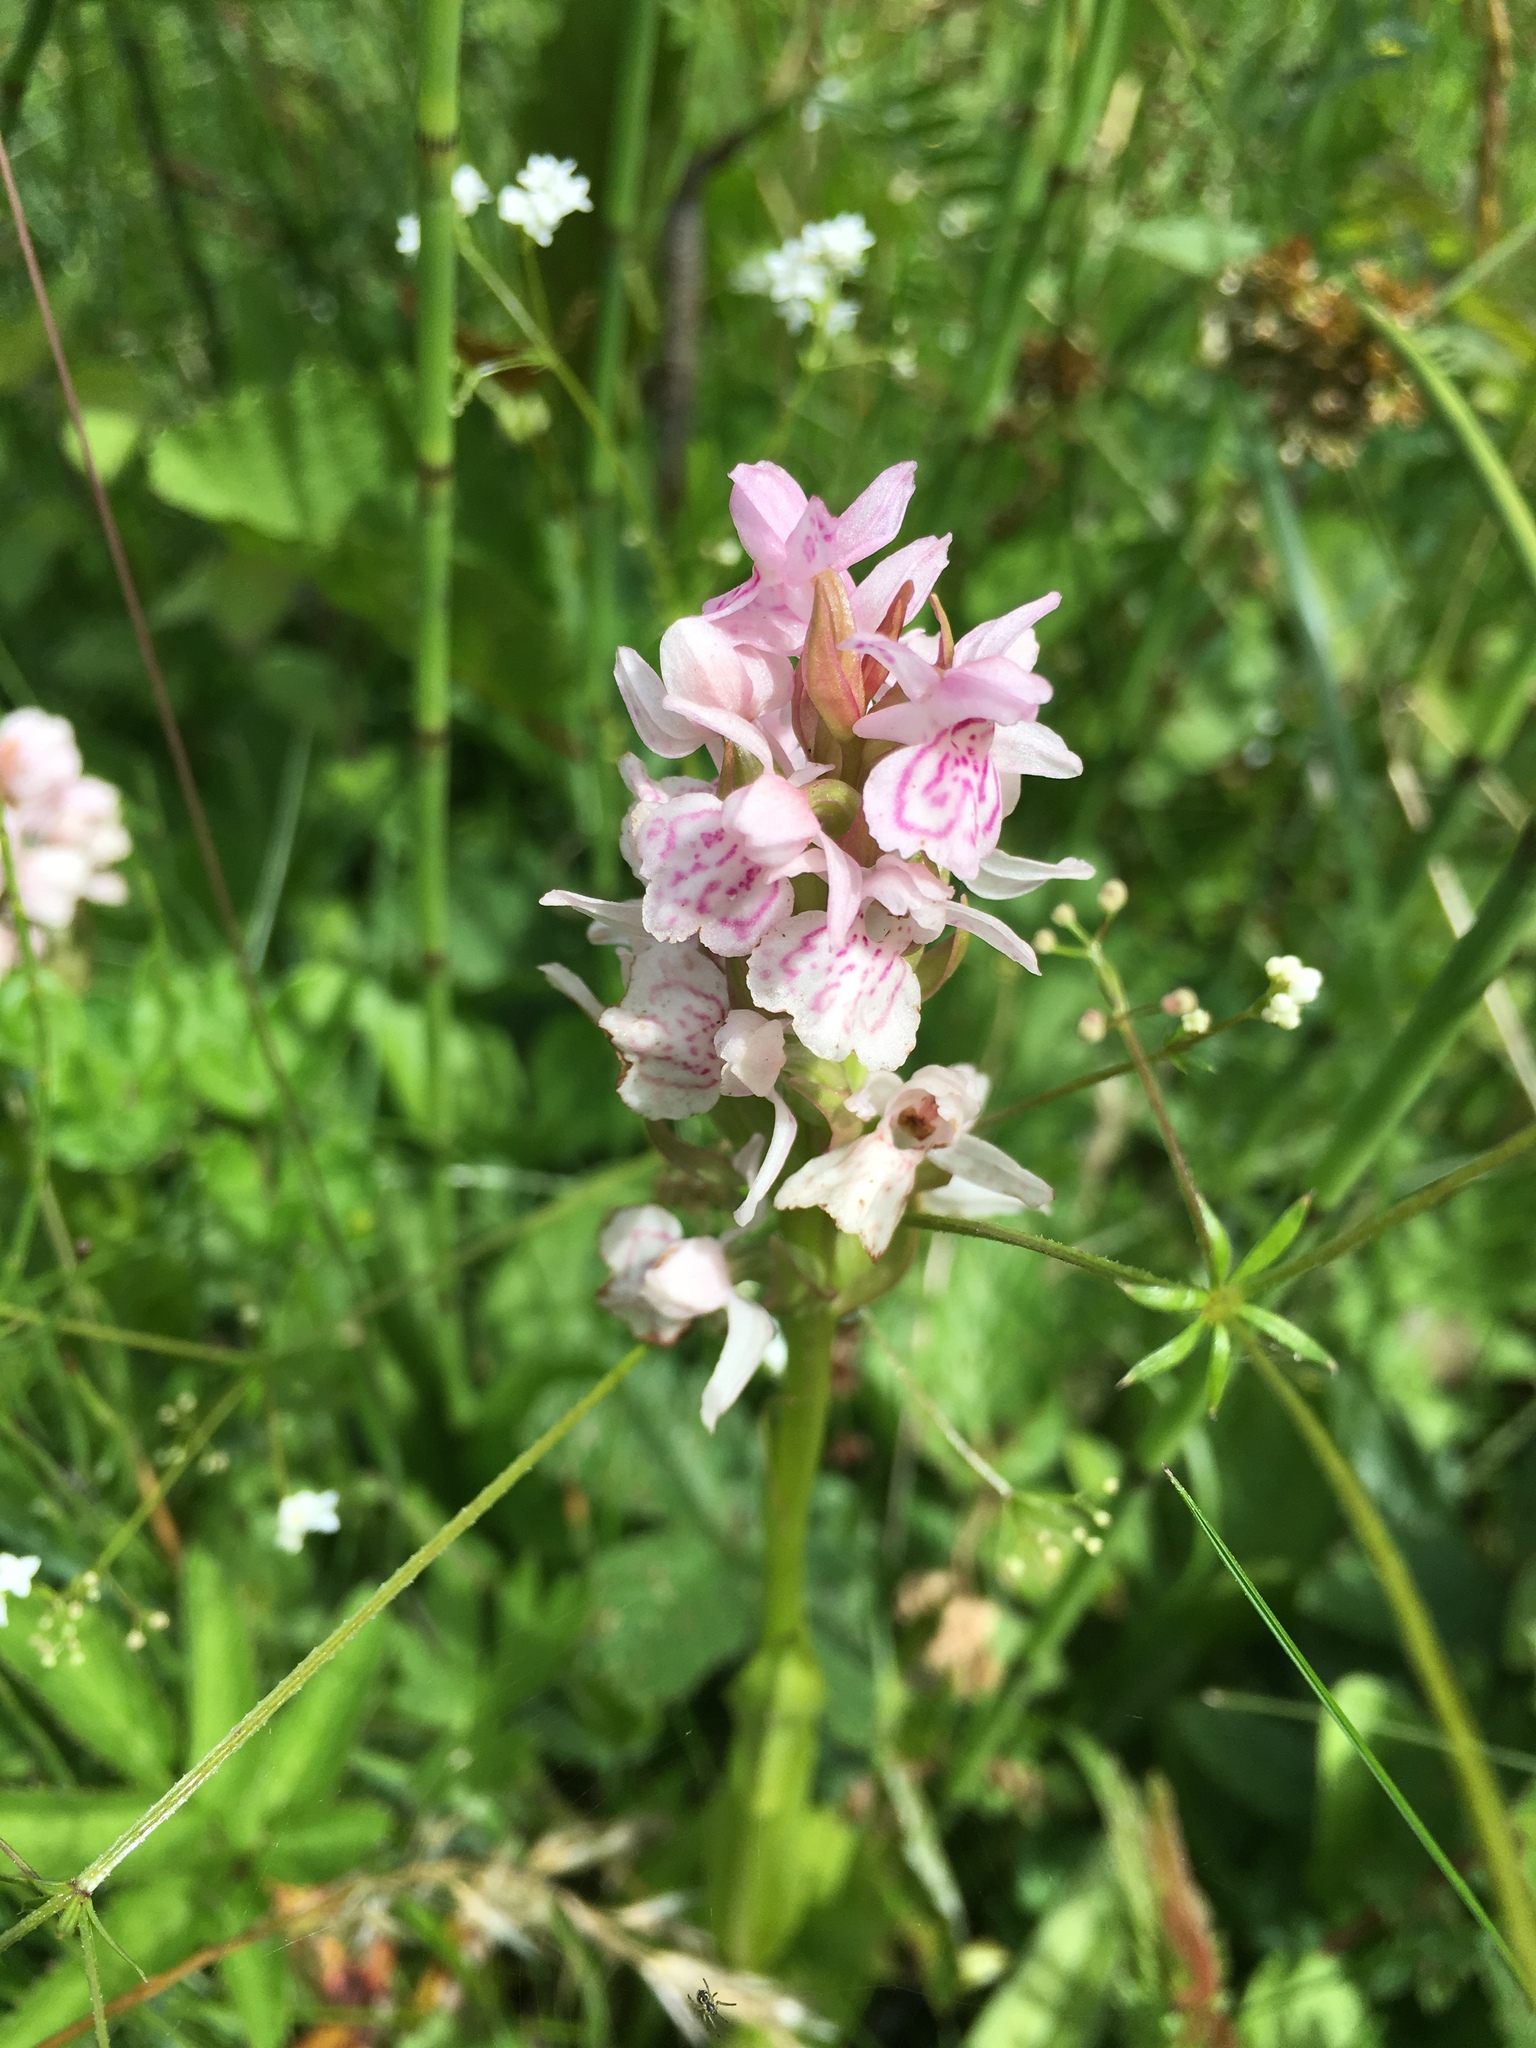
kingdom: Plantae
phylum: Tracheophyta
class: Liliopsida
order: Asparagales
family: Orchidaceae
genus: Dactylorhiza
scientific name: Dactylorhiza maculata
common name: Heath spotted-orchid
